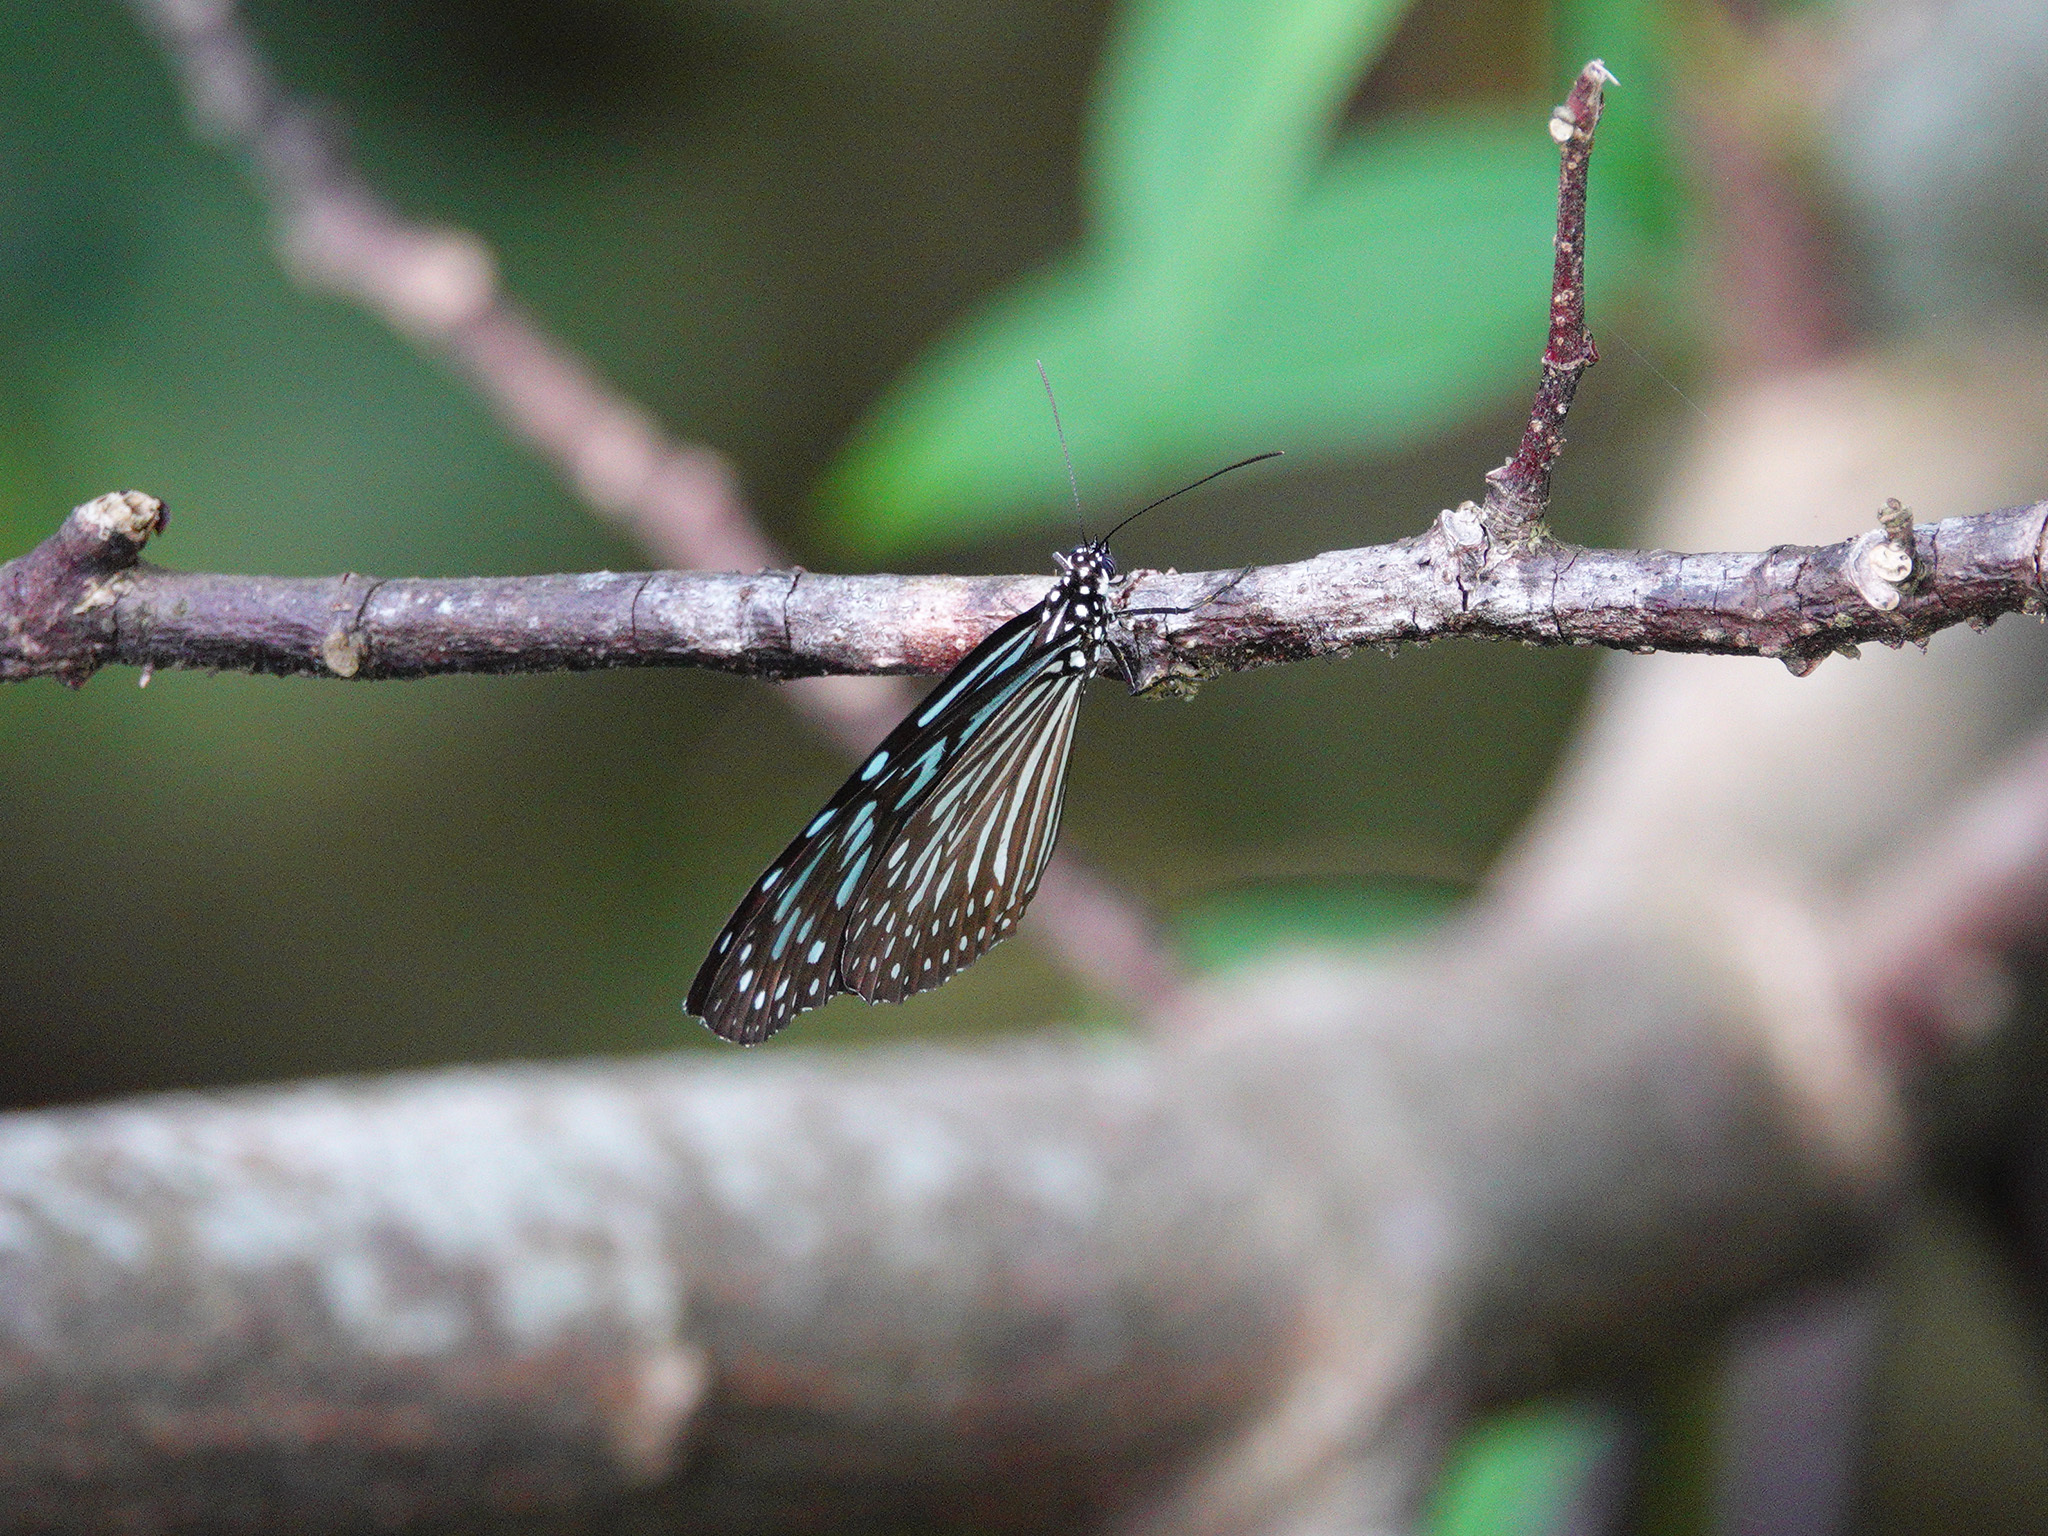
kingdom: Animalia
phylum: Arthropoda
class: Insecta
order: Lepidoptera
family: Nymphalidae
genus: Ideopsis
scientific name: Ideopsis vulgaris
